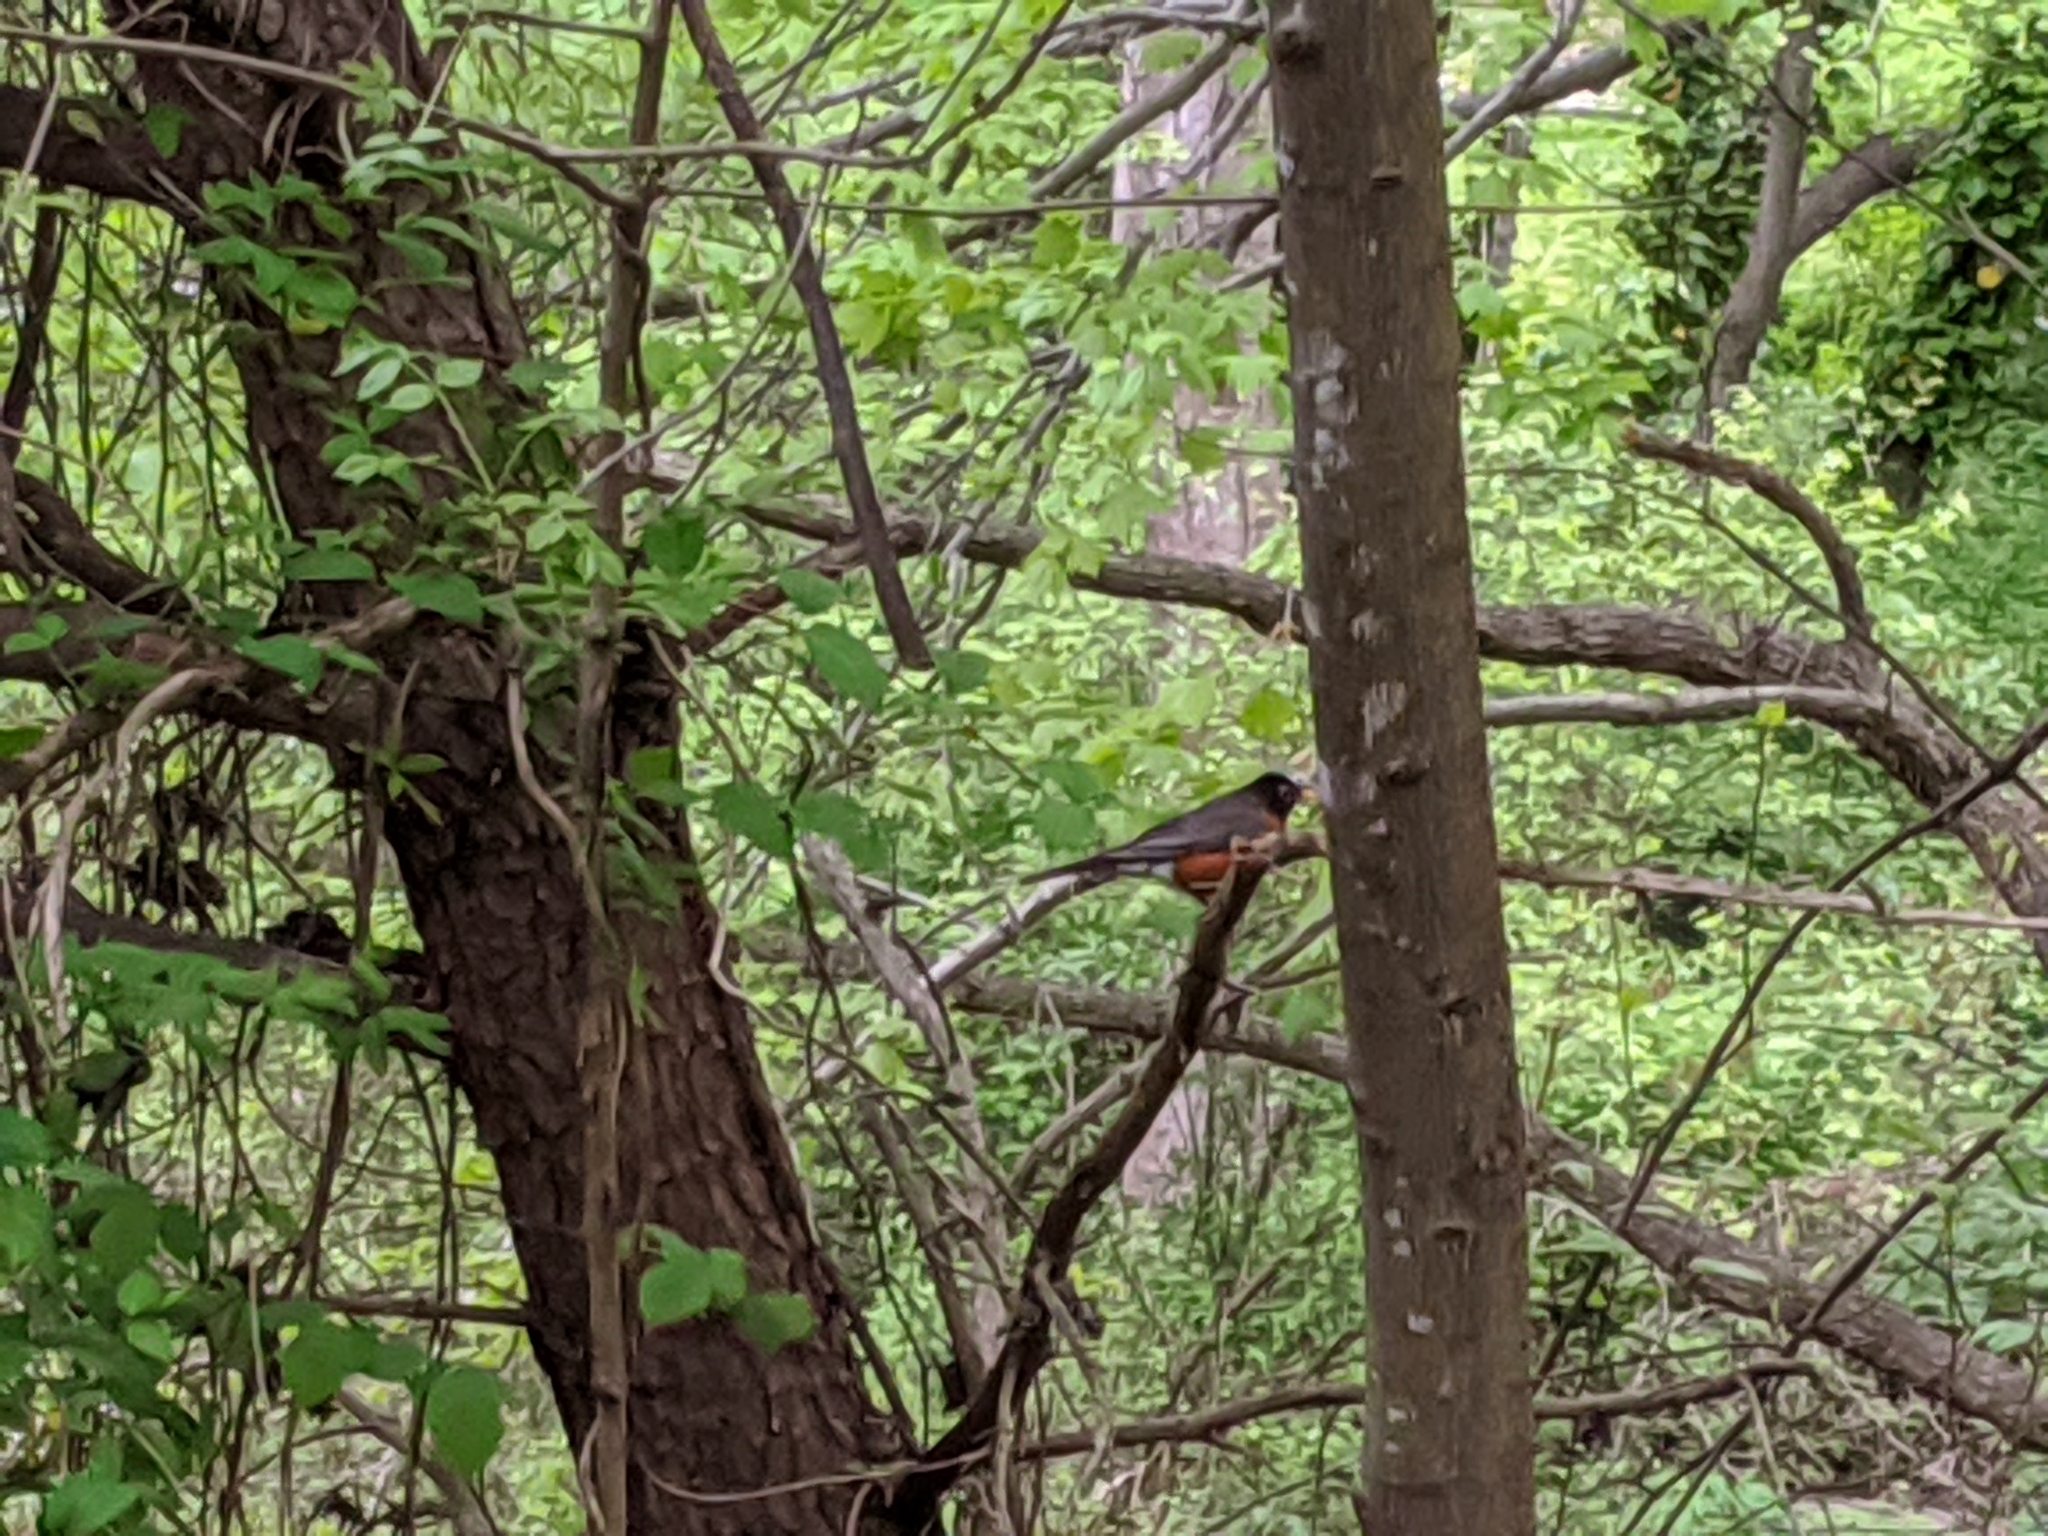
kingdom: Animalia
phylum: Chordata
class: Aves
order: Passeriformes
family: Turdidae
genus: Turdus
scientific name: Turdus migratorius
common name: American robin
